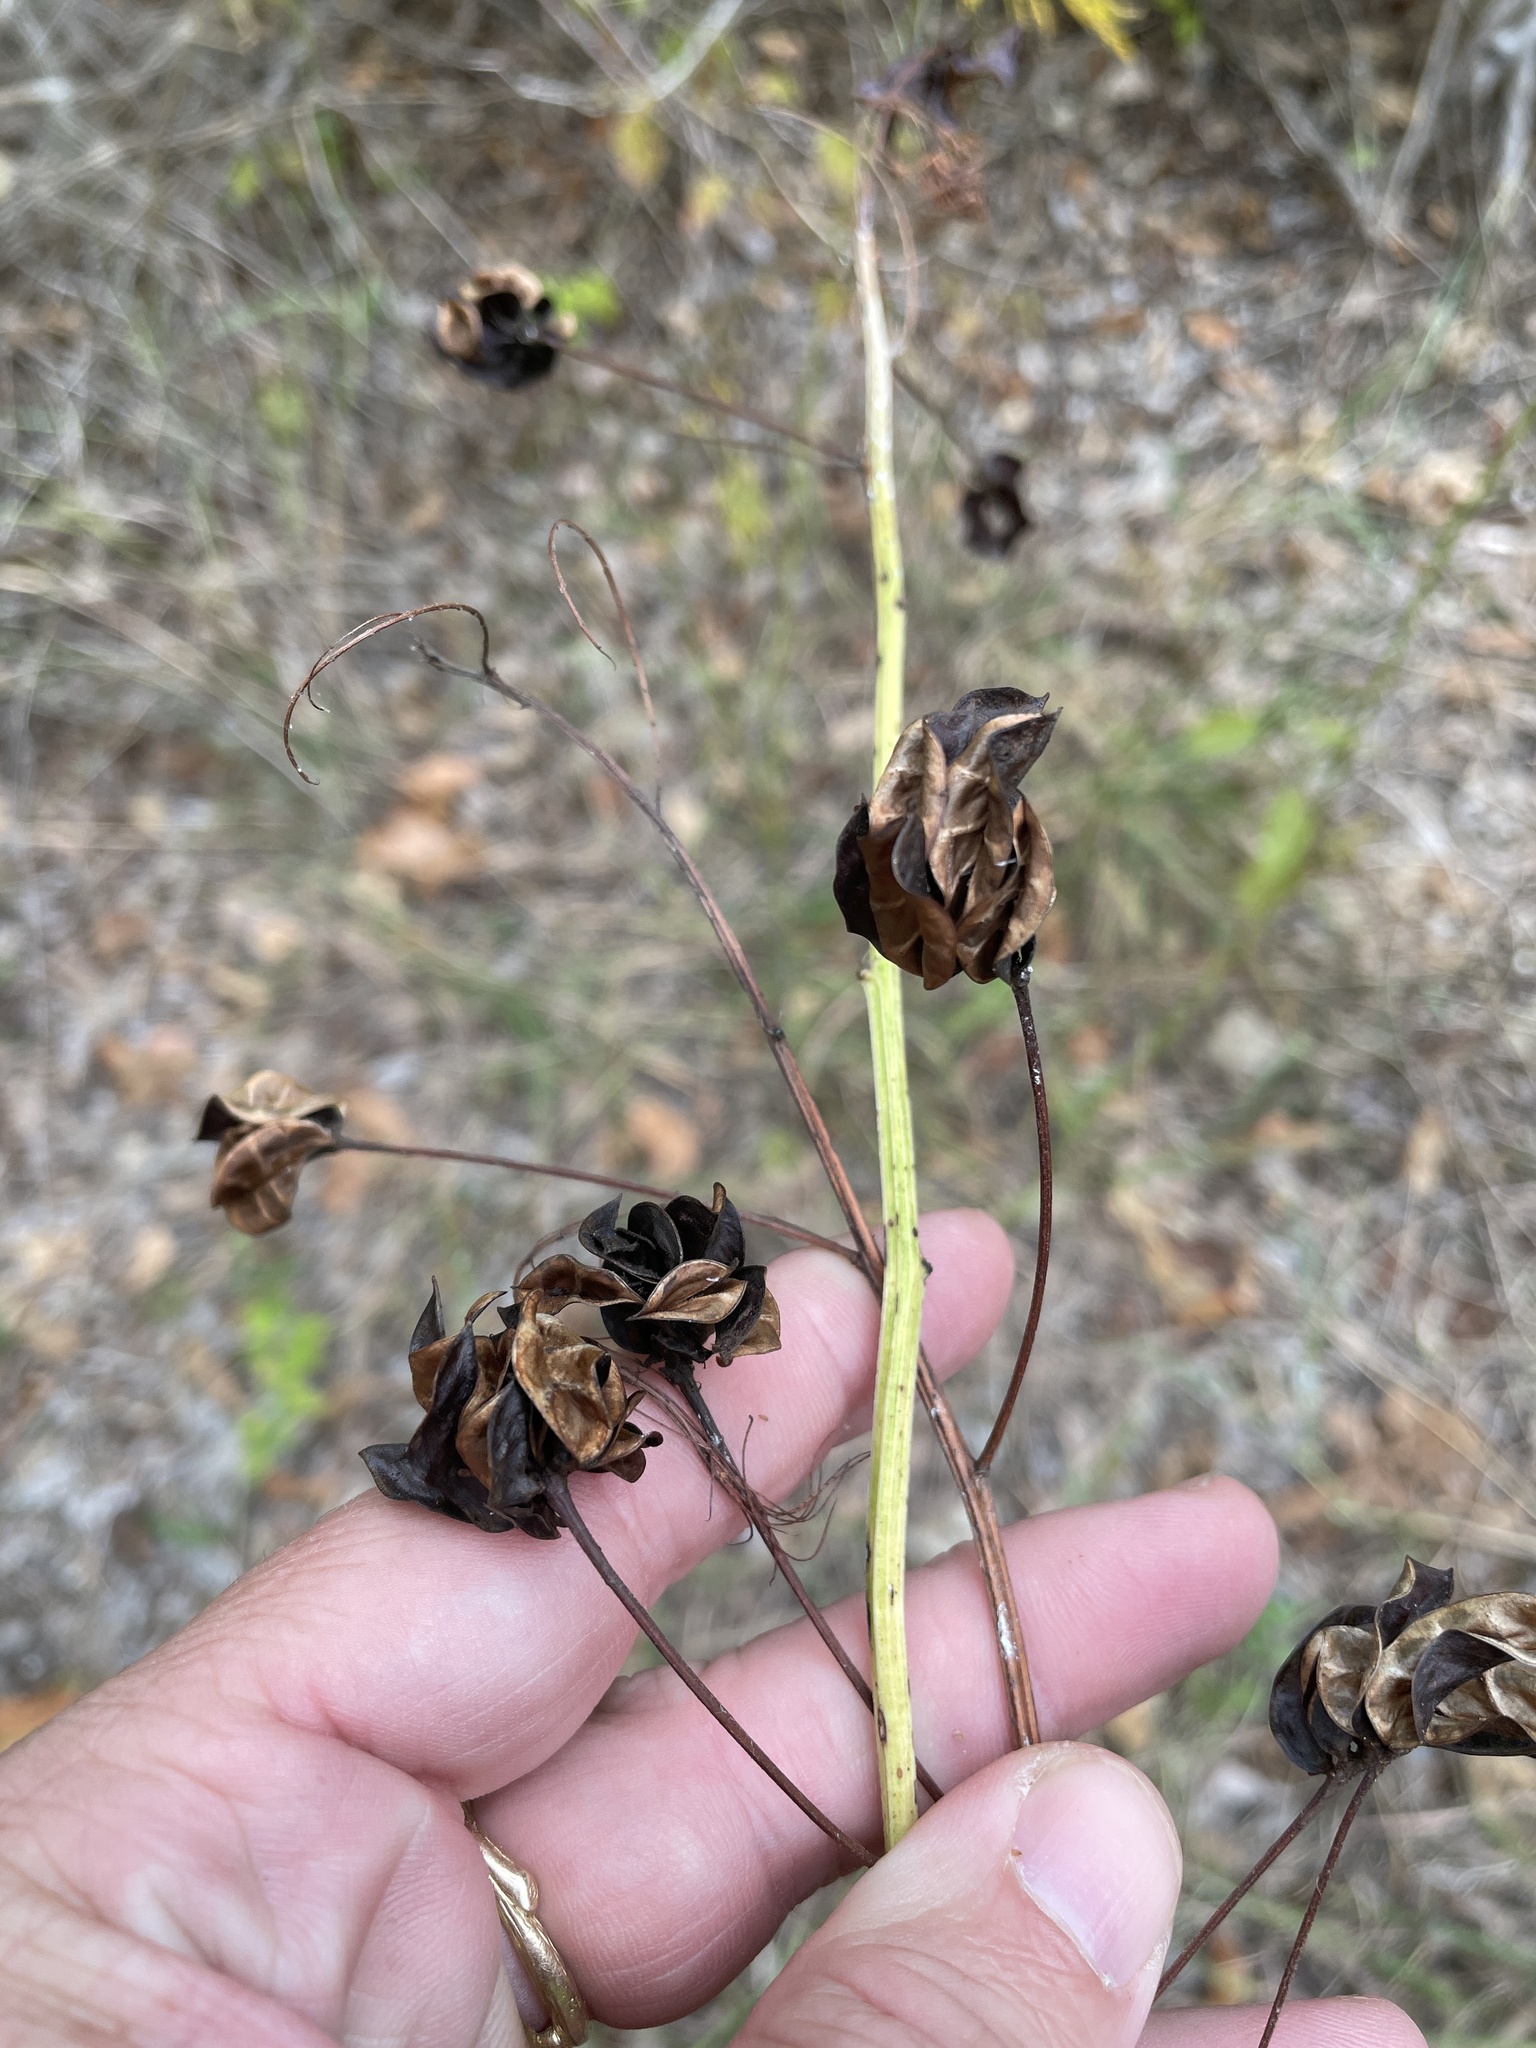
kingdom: Plantae
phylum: Tracheophyta
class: Magnoliopsida
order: Fabales
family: Fabaceae
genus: Desmanthus
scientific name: Desmanthus illinoensis
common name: Illinois bundle-flower
